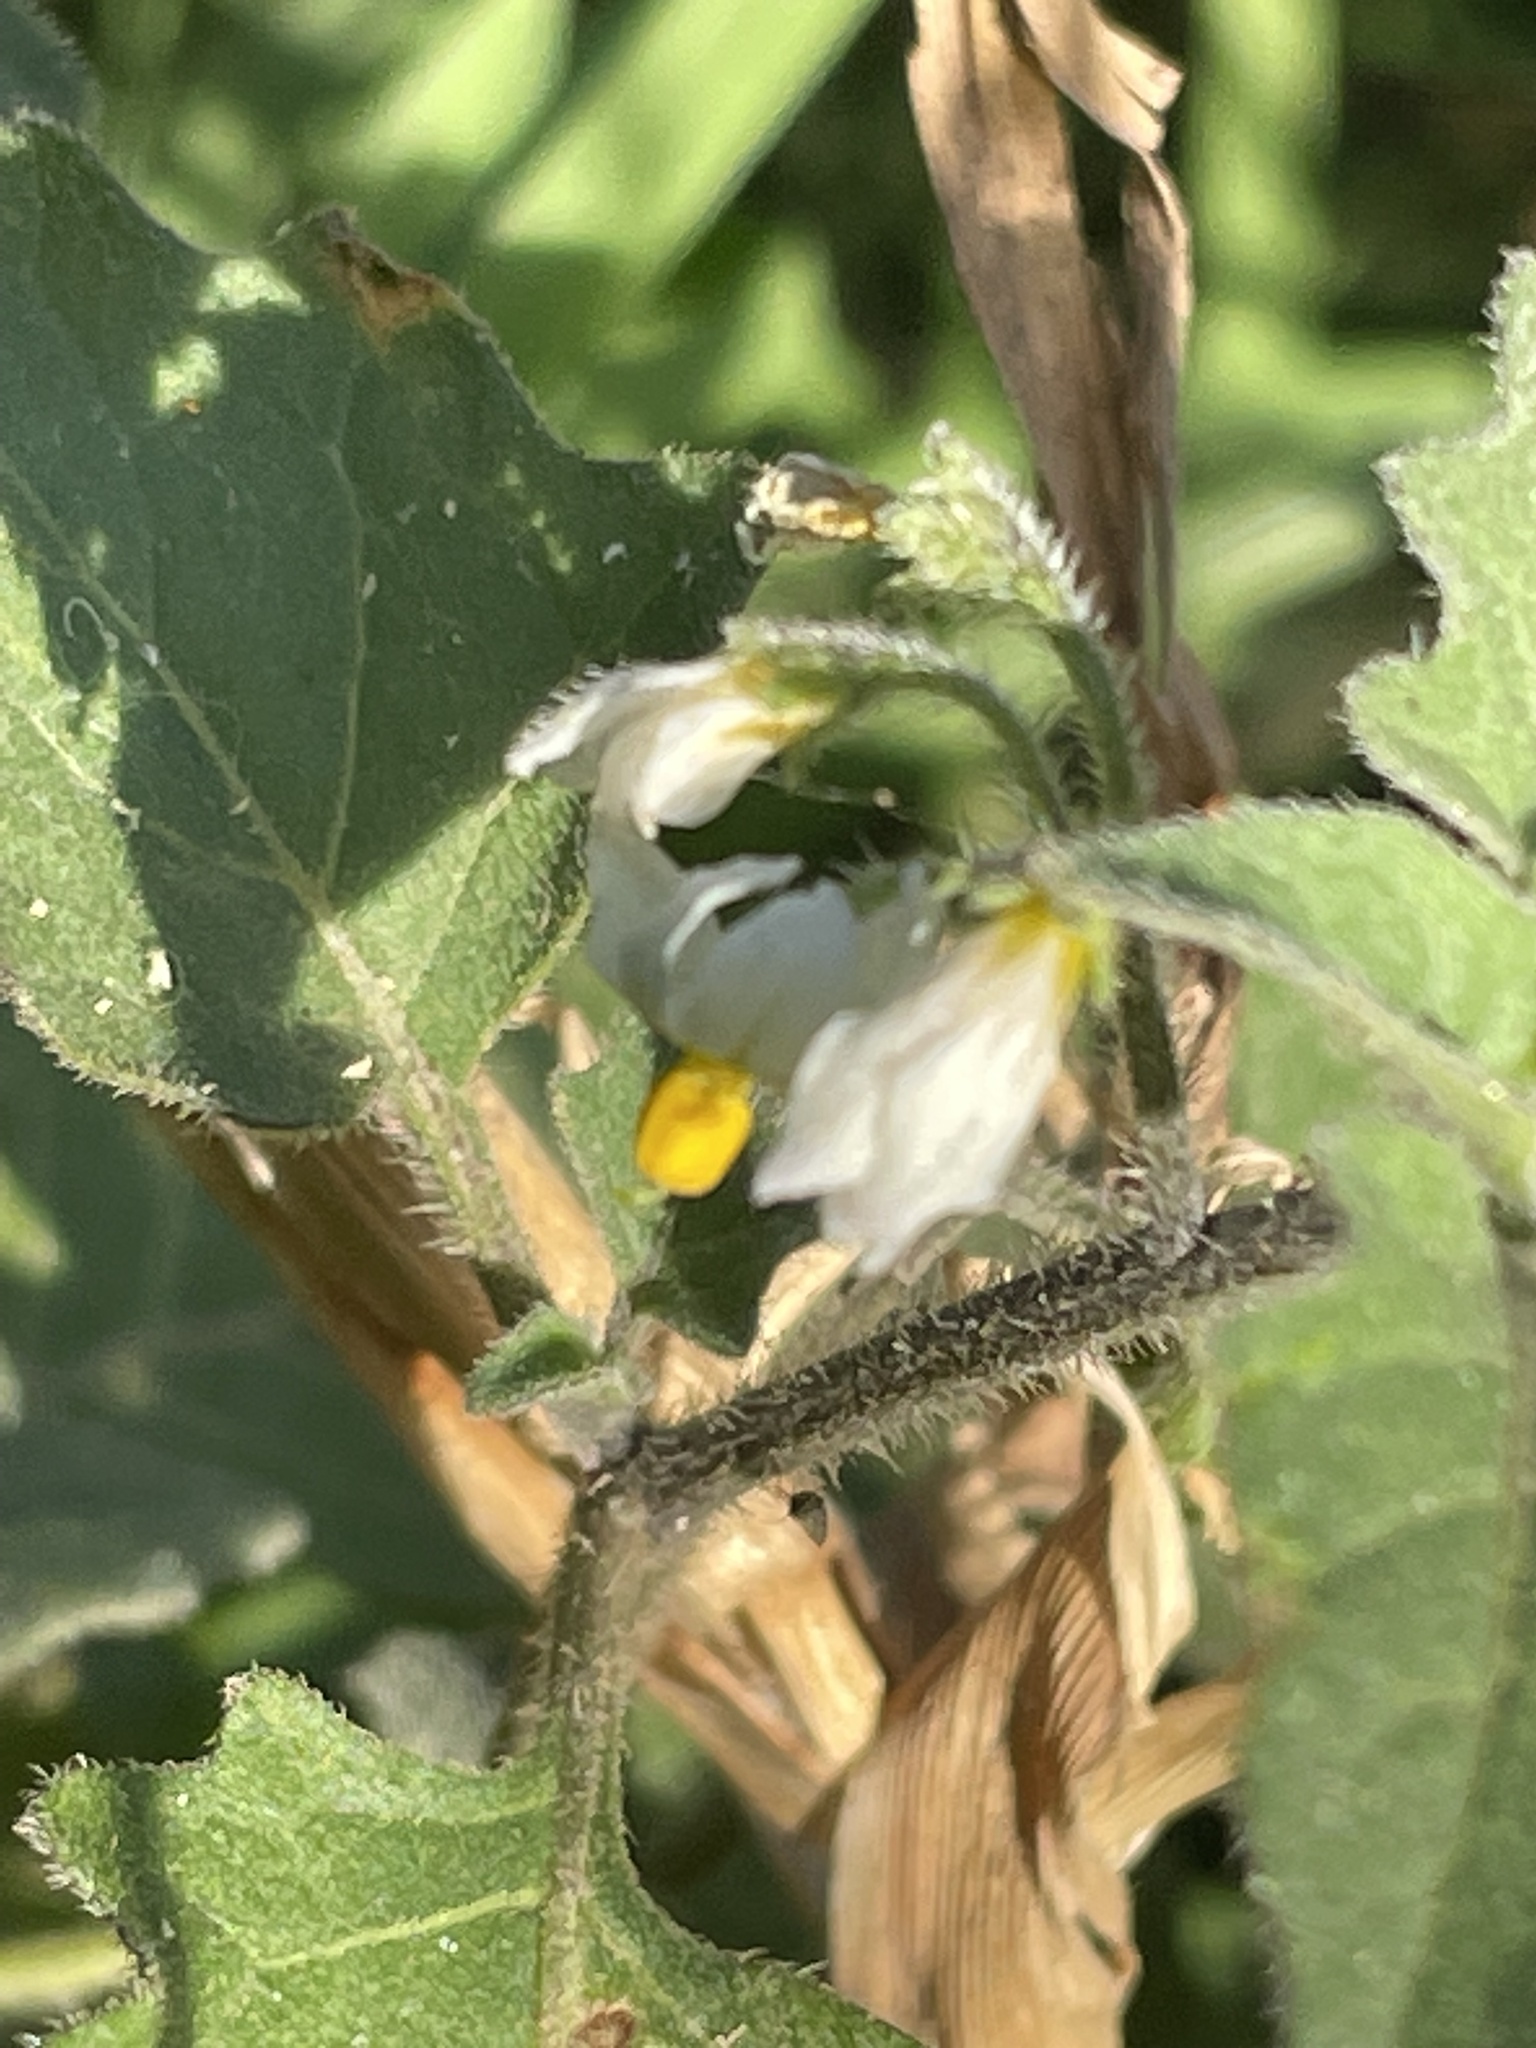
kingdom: Plantae
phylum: Tracheophyta
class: Magnoliopsida
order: Solanales
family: Solanaceae
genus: Solanum
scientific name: Solanum villosum
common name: Red nightshade
